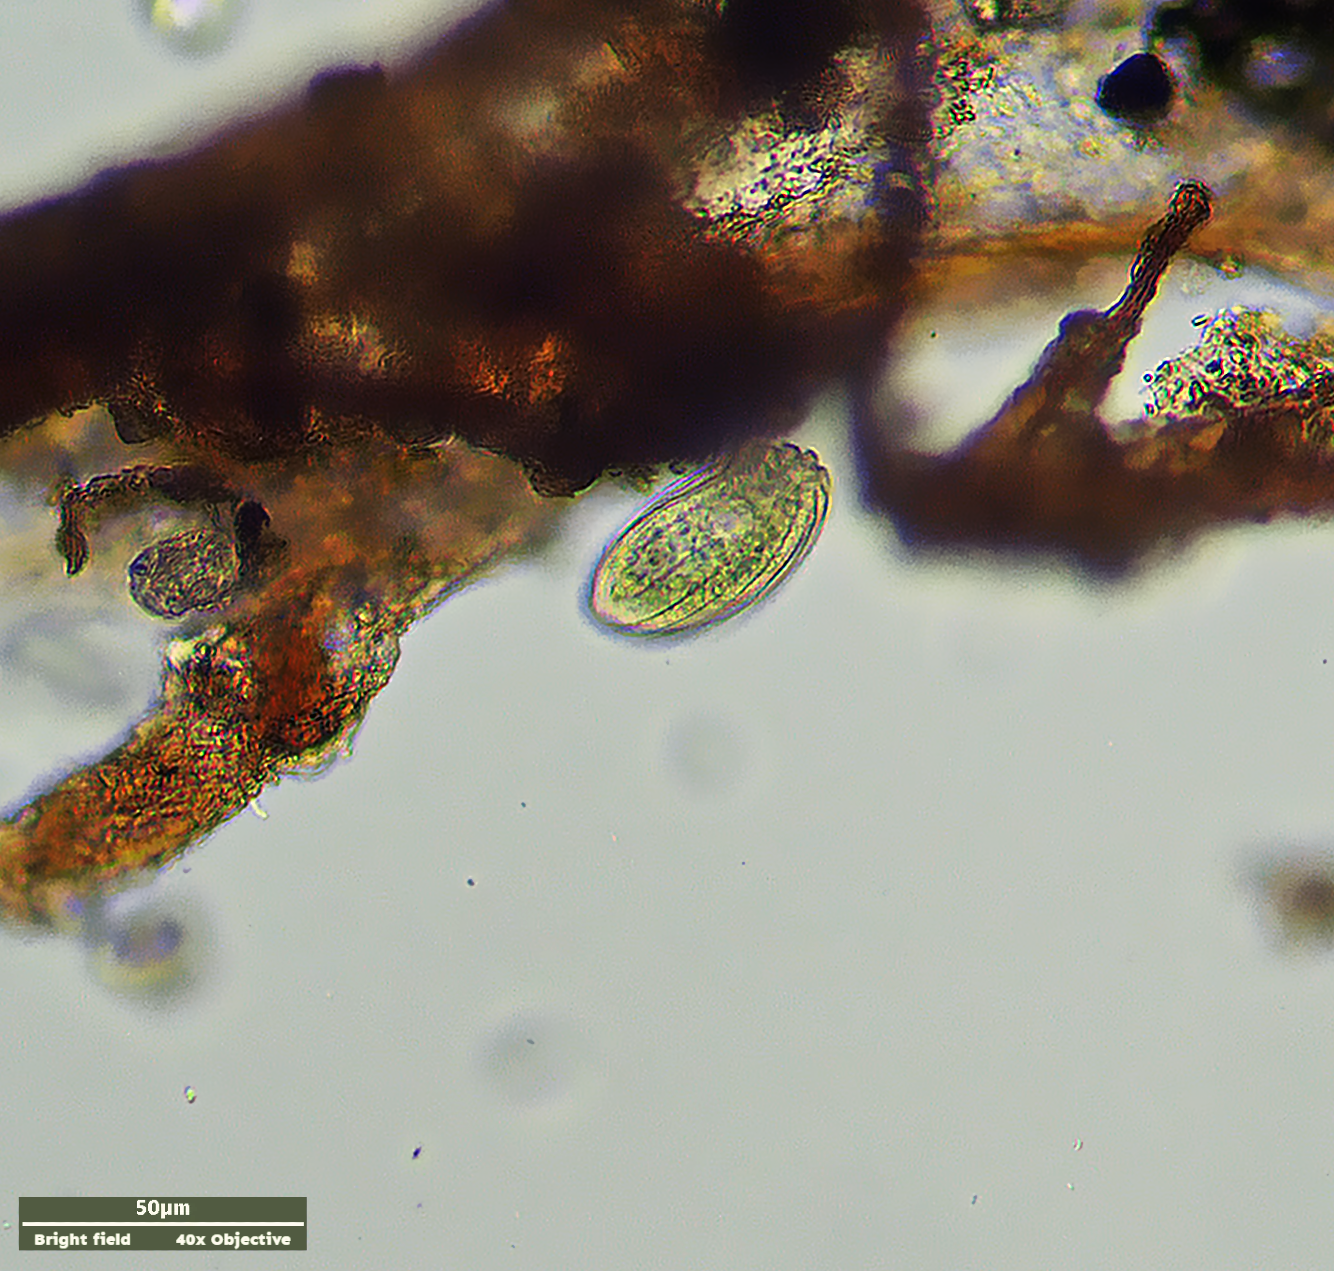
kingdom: Chromista
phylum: Ciliophora
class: Nassophorea
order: Nassulida
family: Pseudomicrothoracidae
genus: Pseudomicrothorax
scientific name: Pseudomicrothorax agilis
